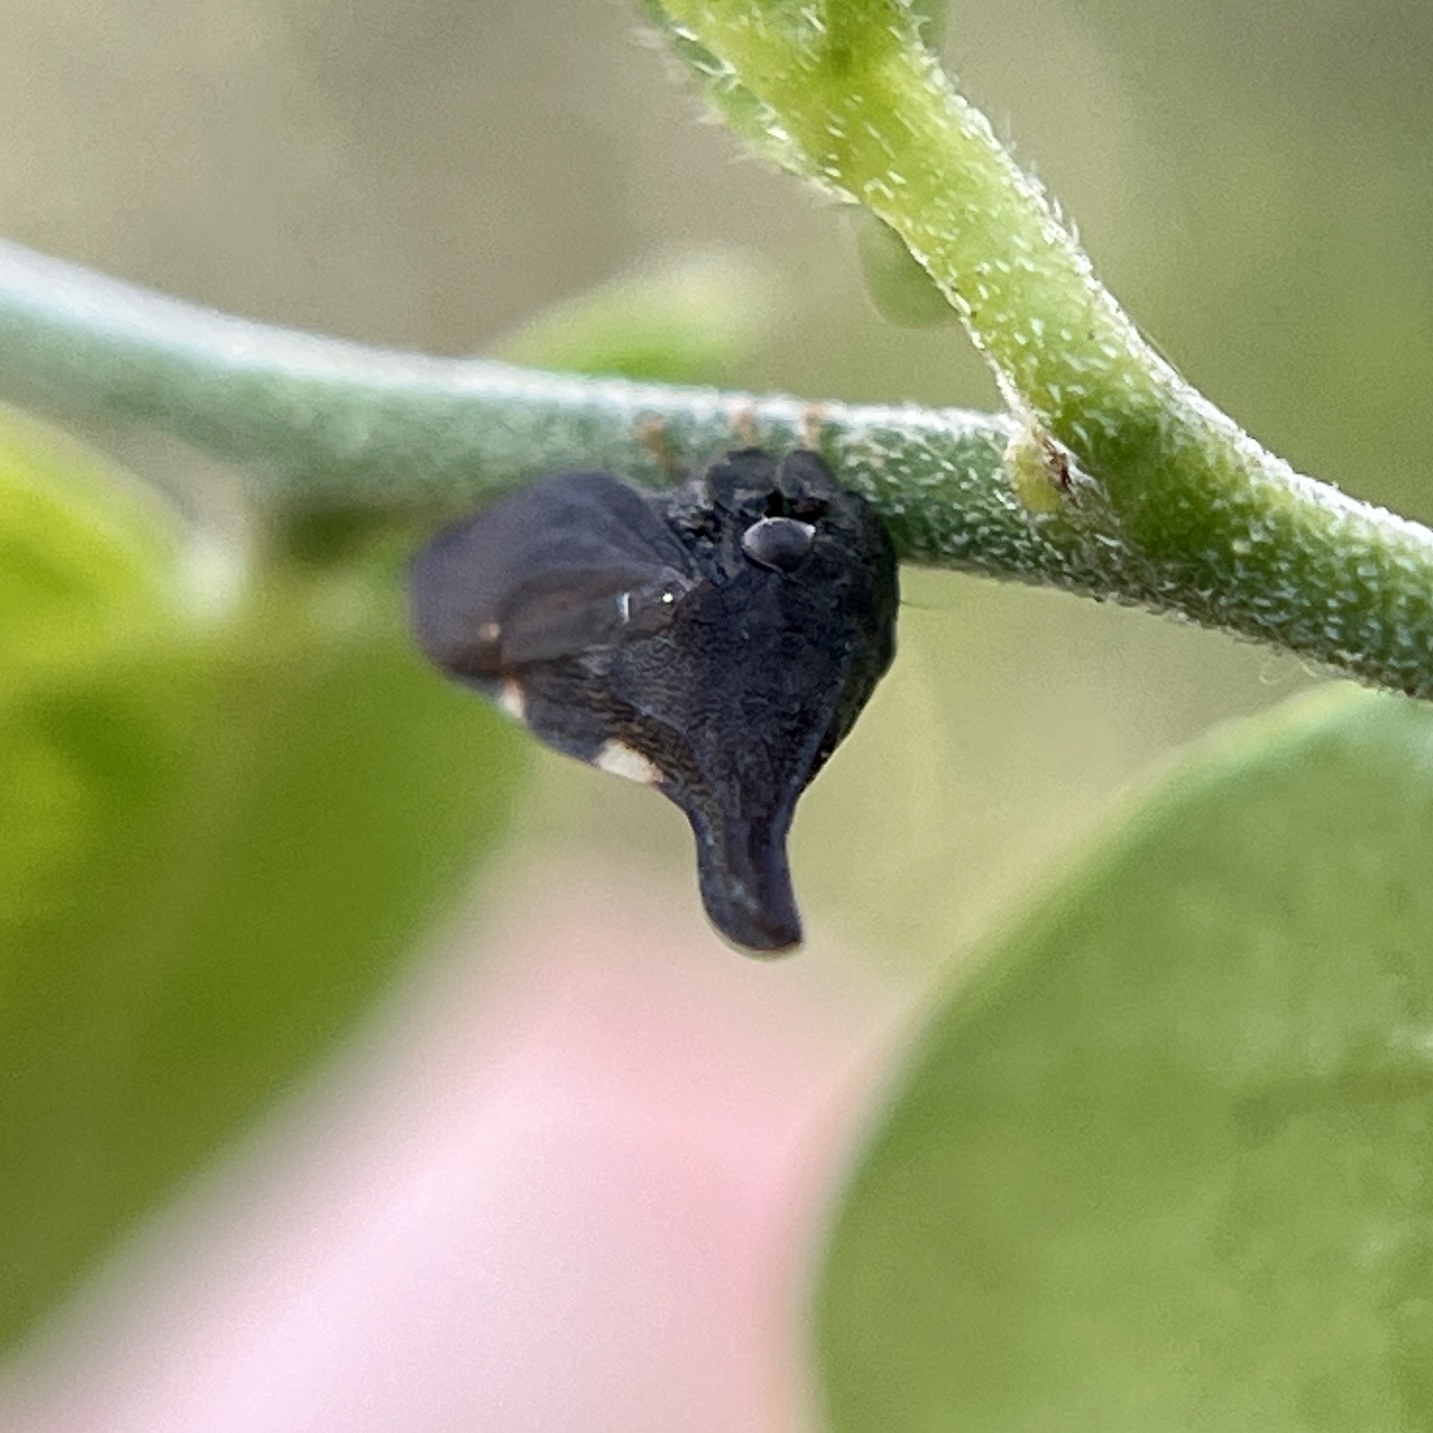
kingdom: Animalia
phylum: Arthropoda
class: Insecta
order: Hemiptera
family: Membracidae
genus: Enchenopa
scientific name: Enchenopa
